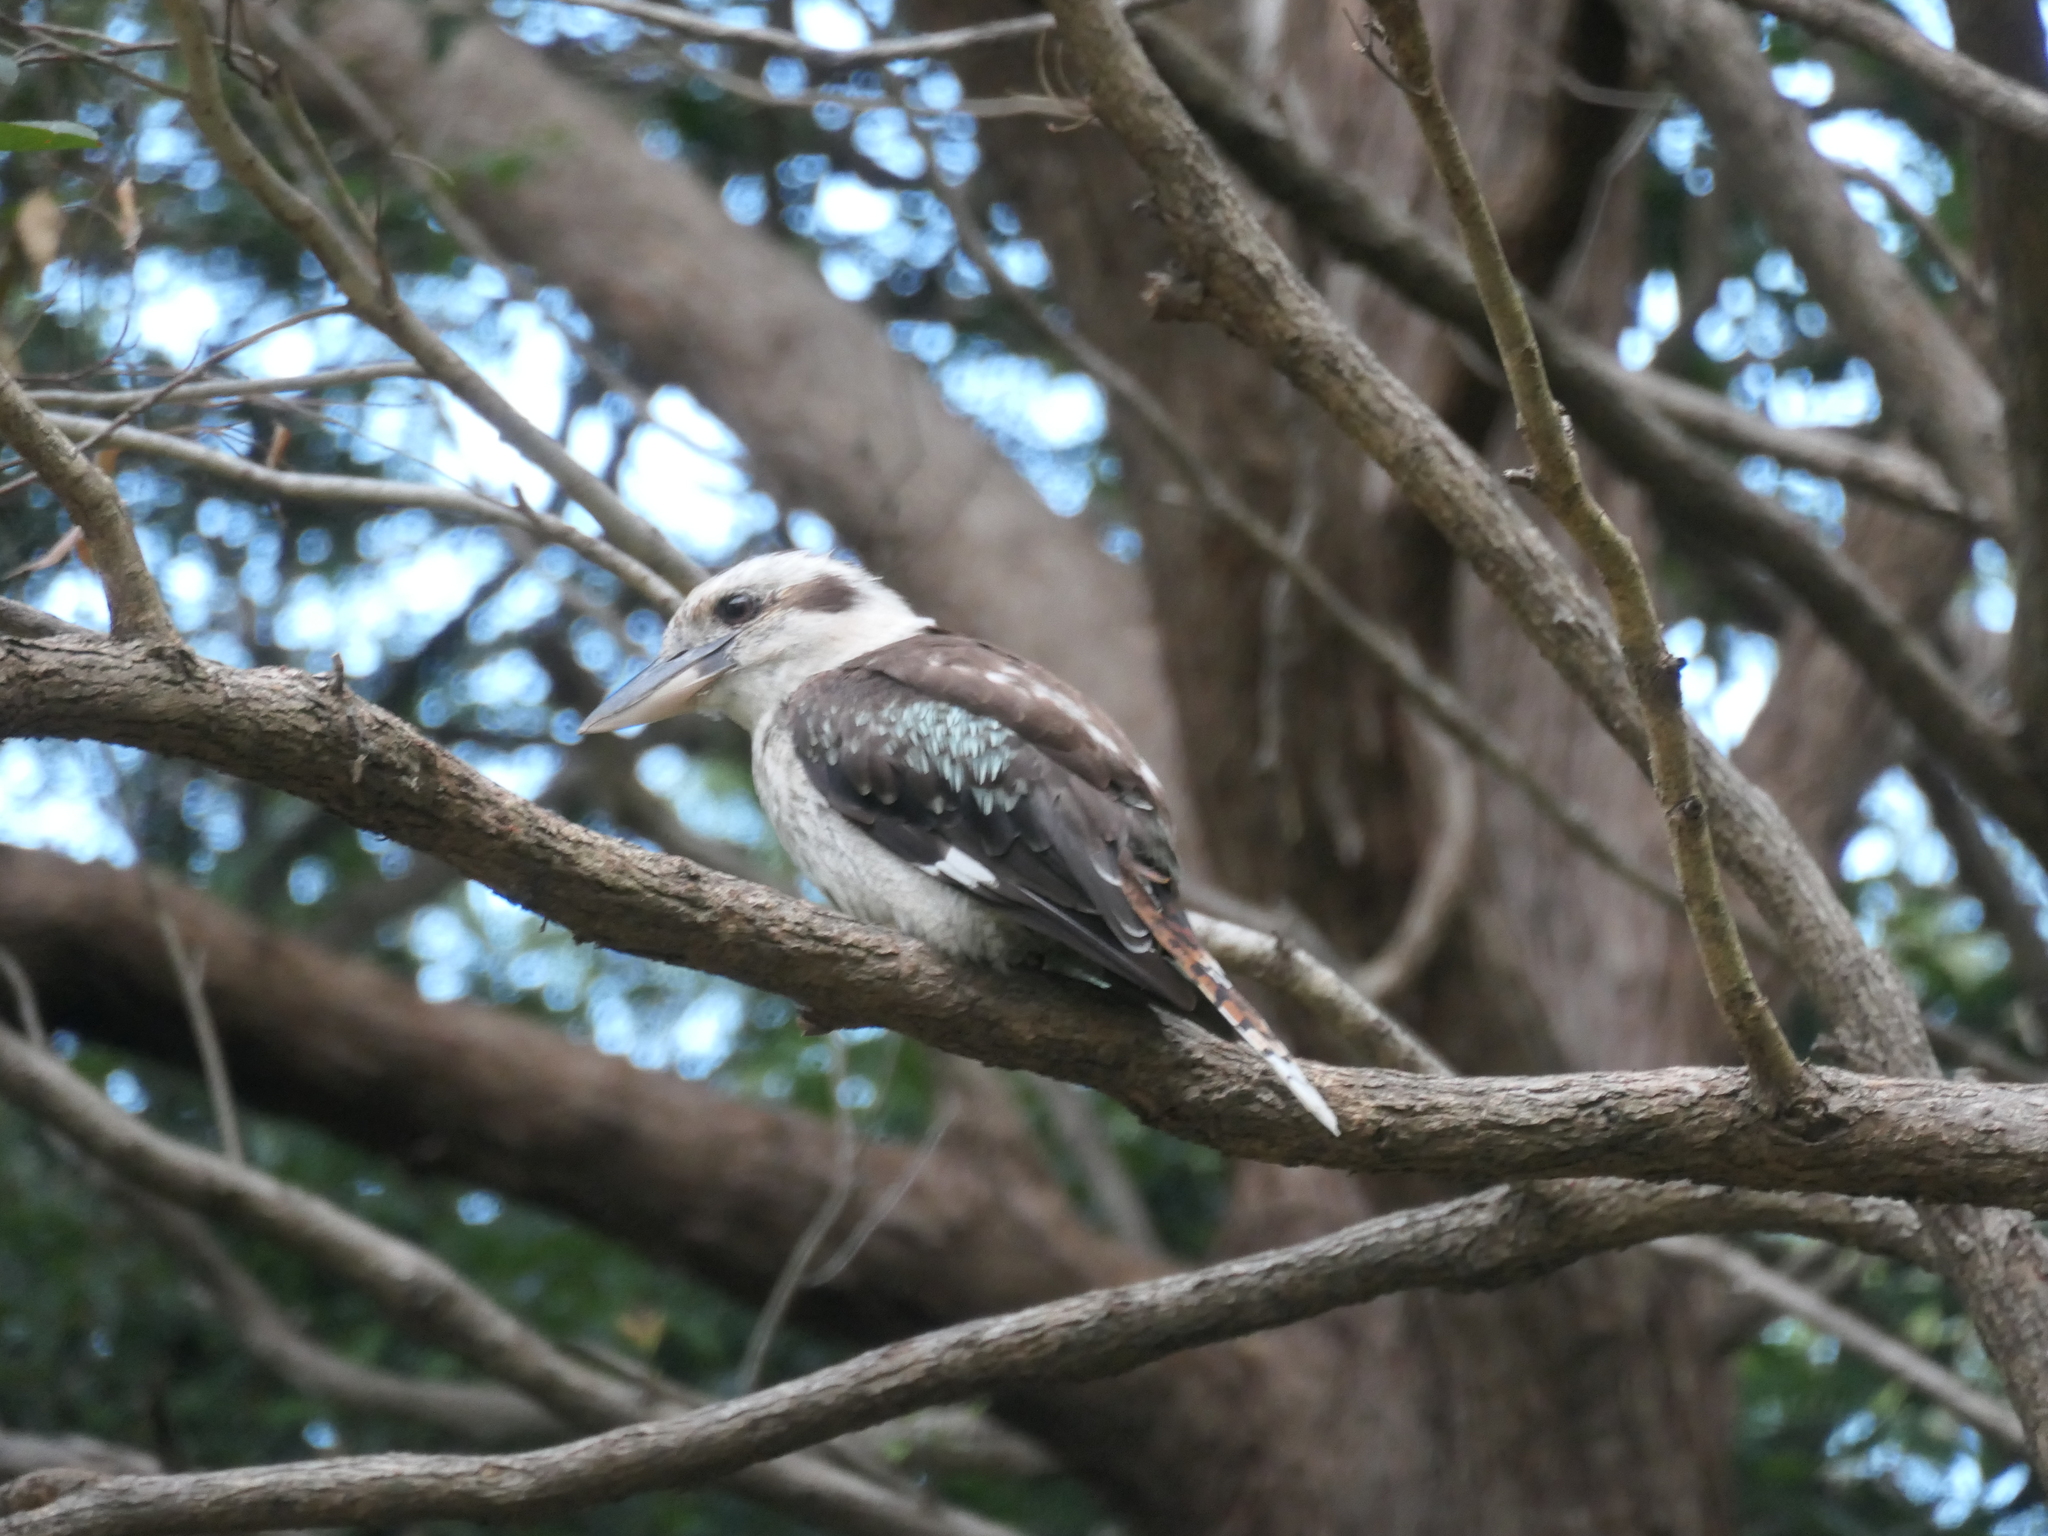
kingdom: Animalia
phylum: Chordata
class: Aves
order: Coraciiformes
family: Alcedinidae
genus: Dacelo
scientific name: Dacelo novaeguineae
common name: Laughing kookaburra
